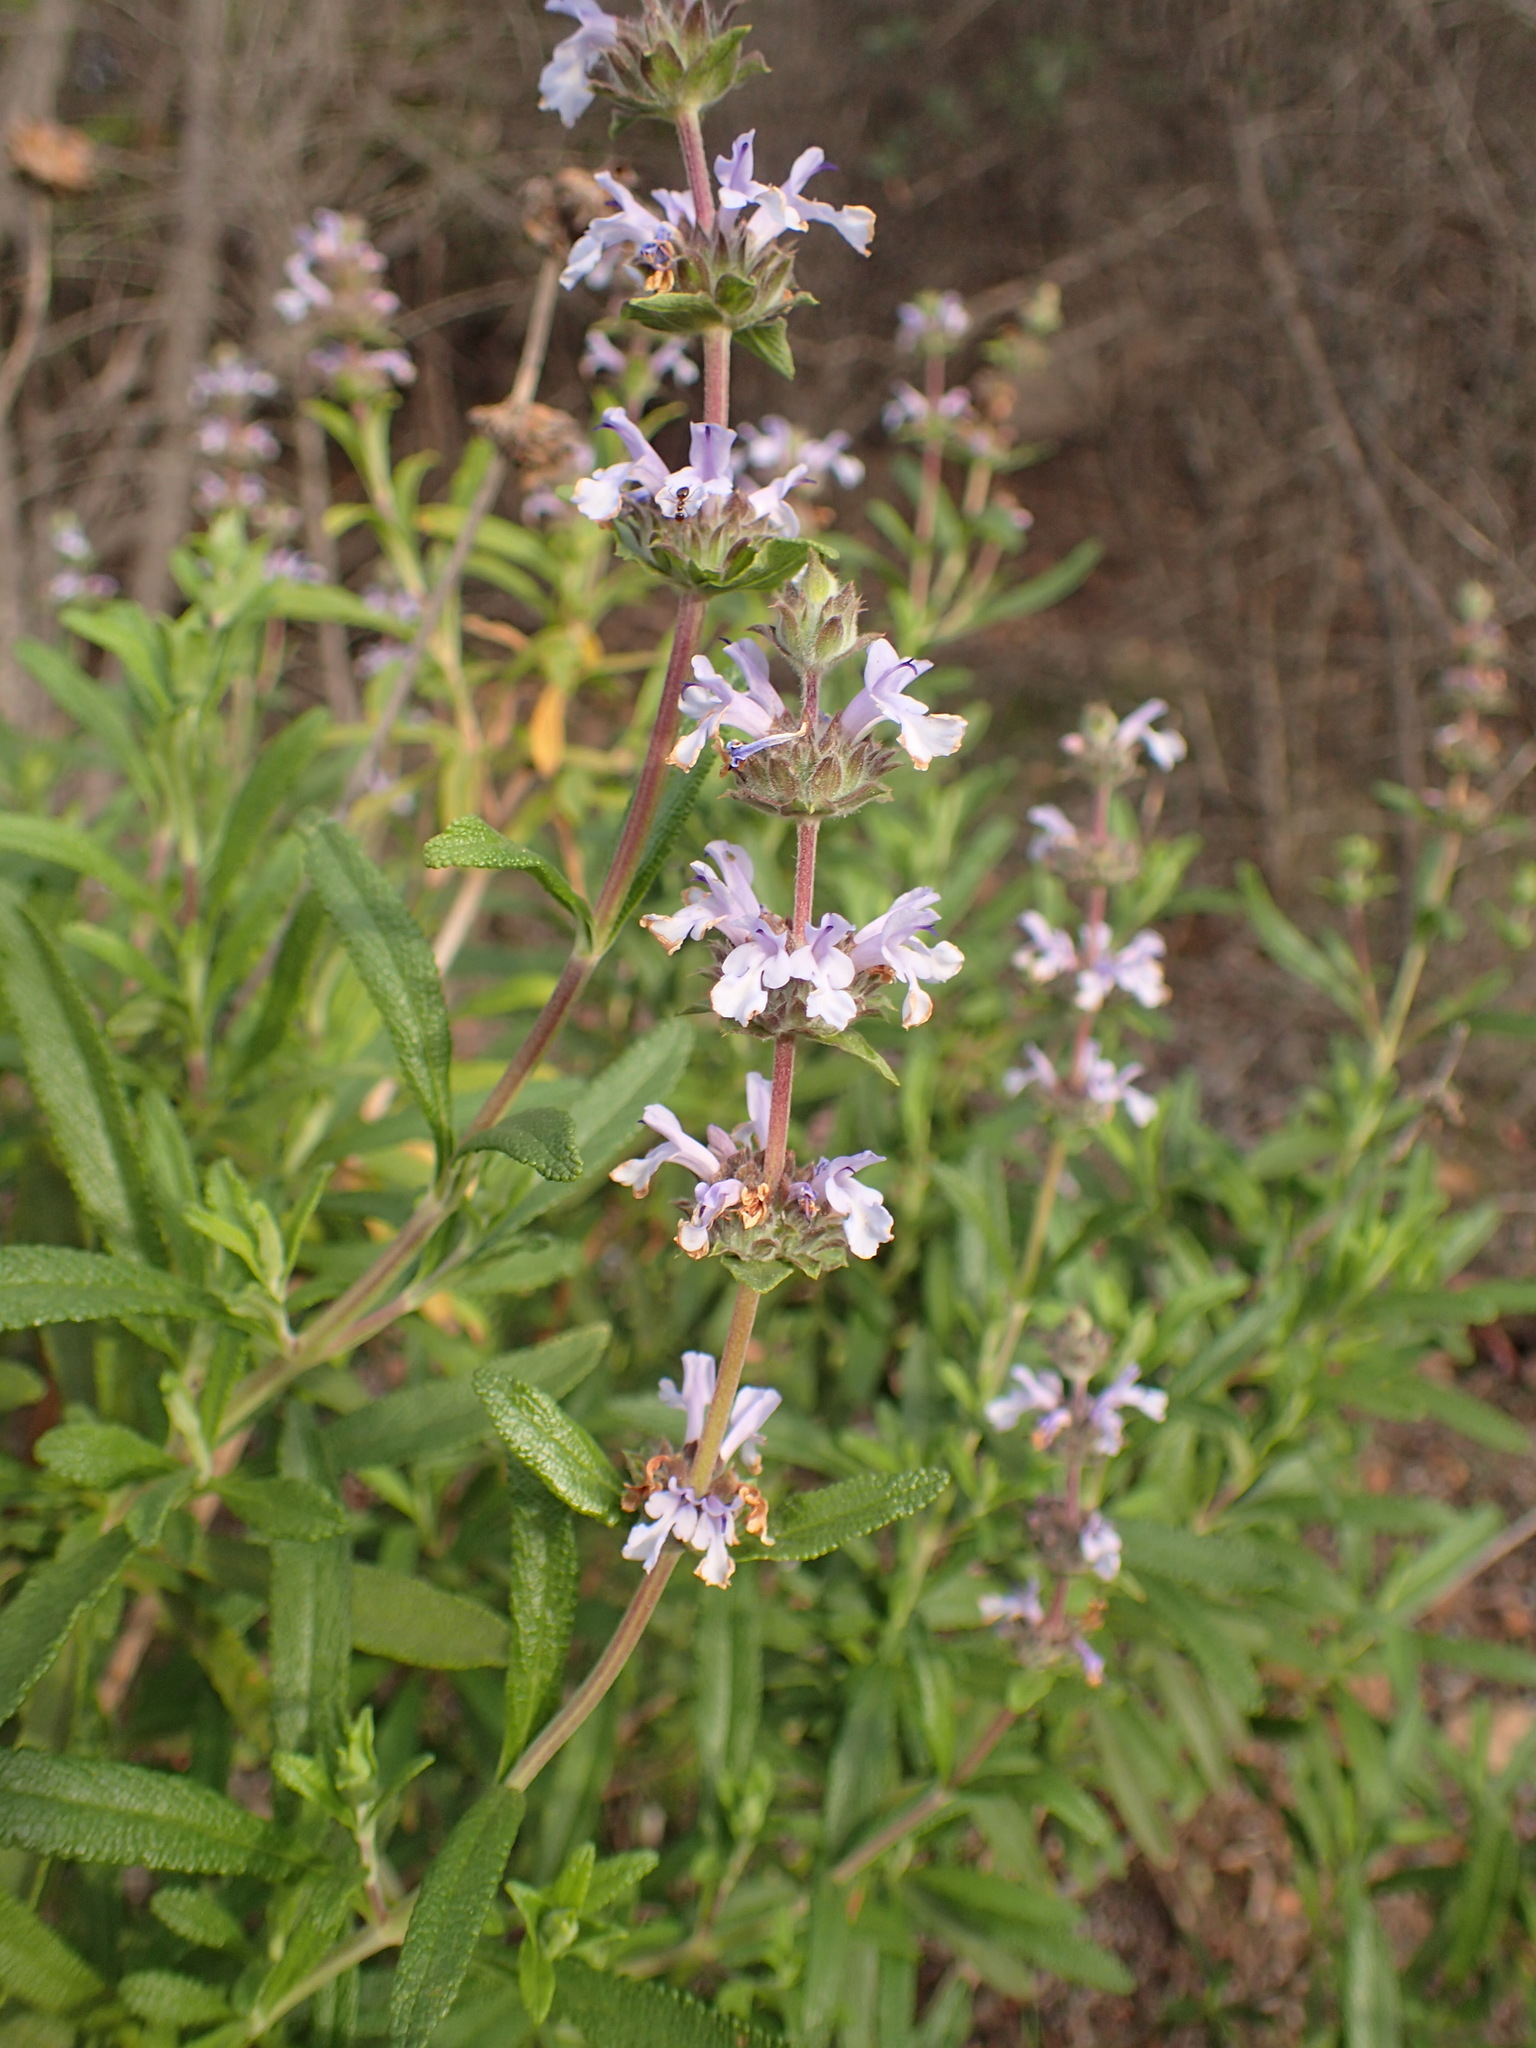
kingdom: Plantae
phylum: Tracheophyta
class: Magnoliopsida
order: Lamiales
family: Lamiaceae
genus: Salvia
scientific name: Salvia mellifera
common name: Black sage
